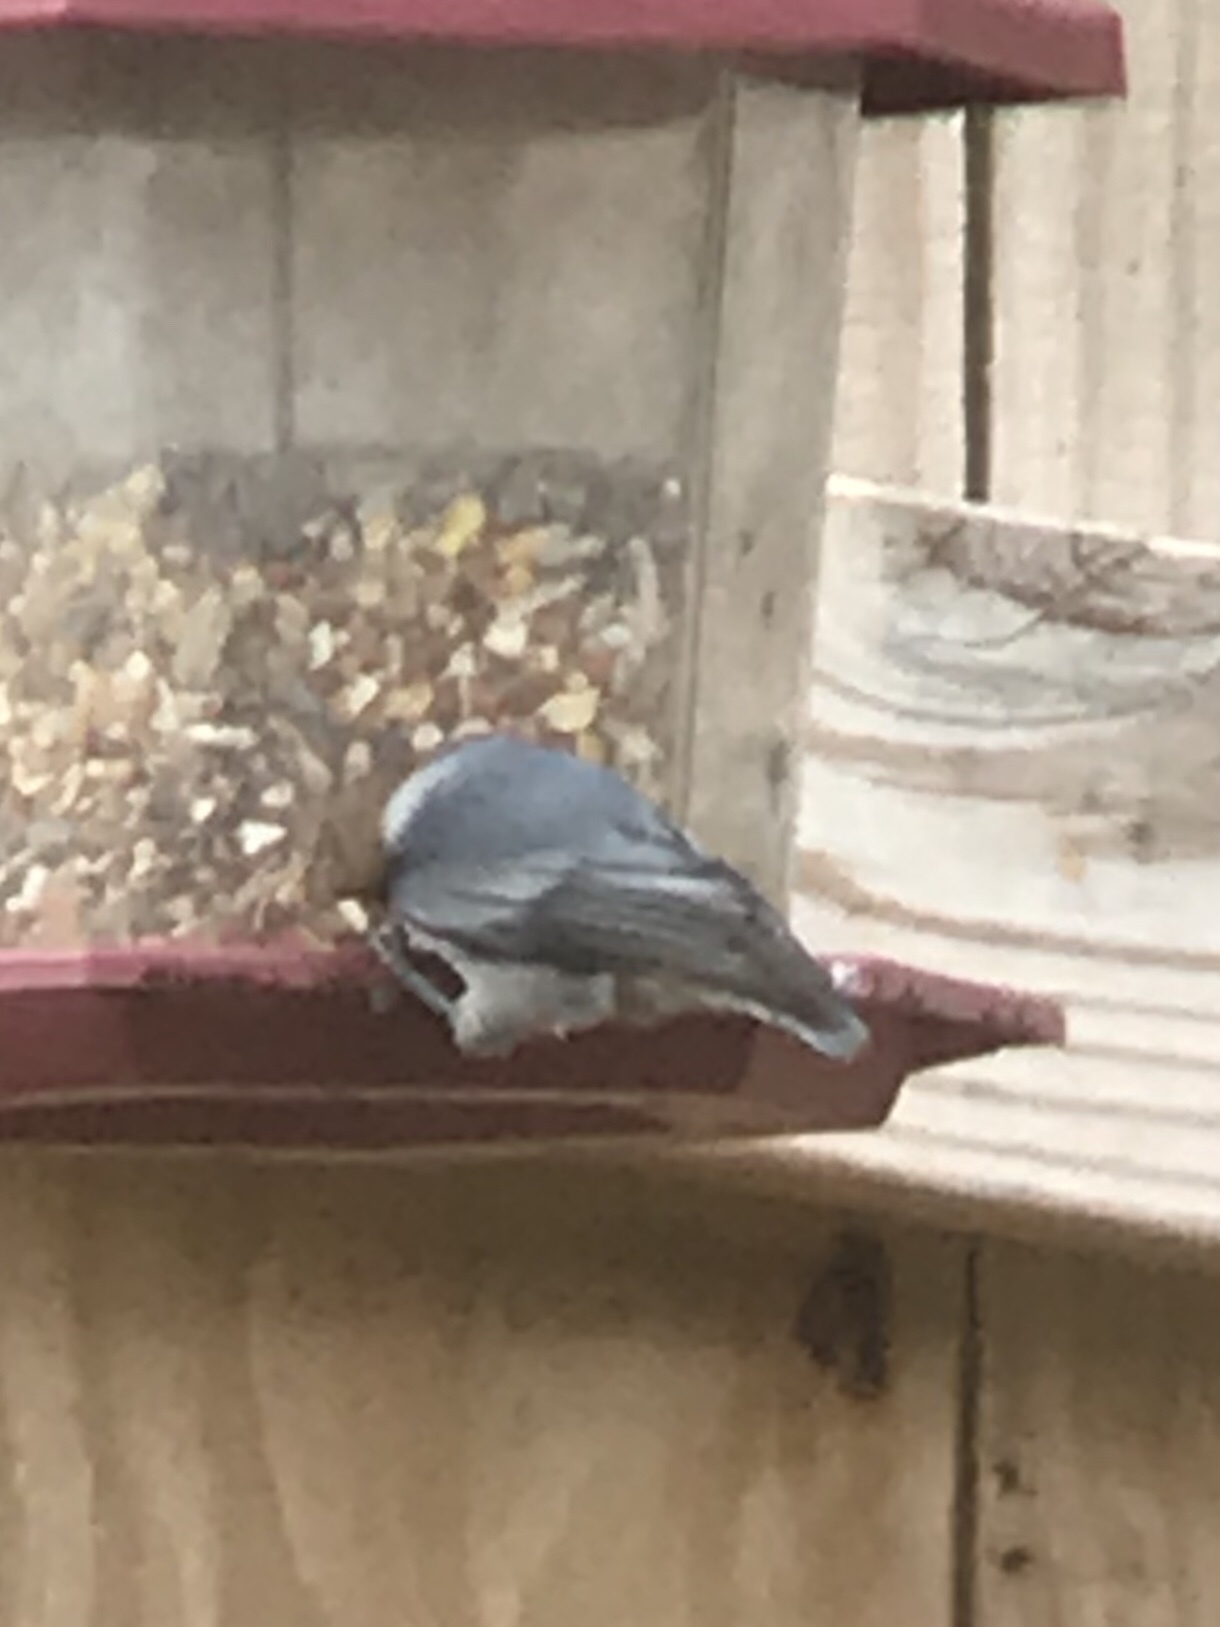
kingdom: Animalia
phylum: Chordata
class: Aves
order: Passeriformes
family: Sittidae
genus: Sitta
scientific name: Sitta pusilla
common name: Brown-headed nuthatch
